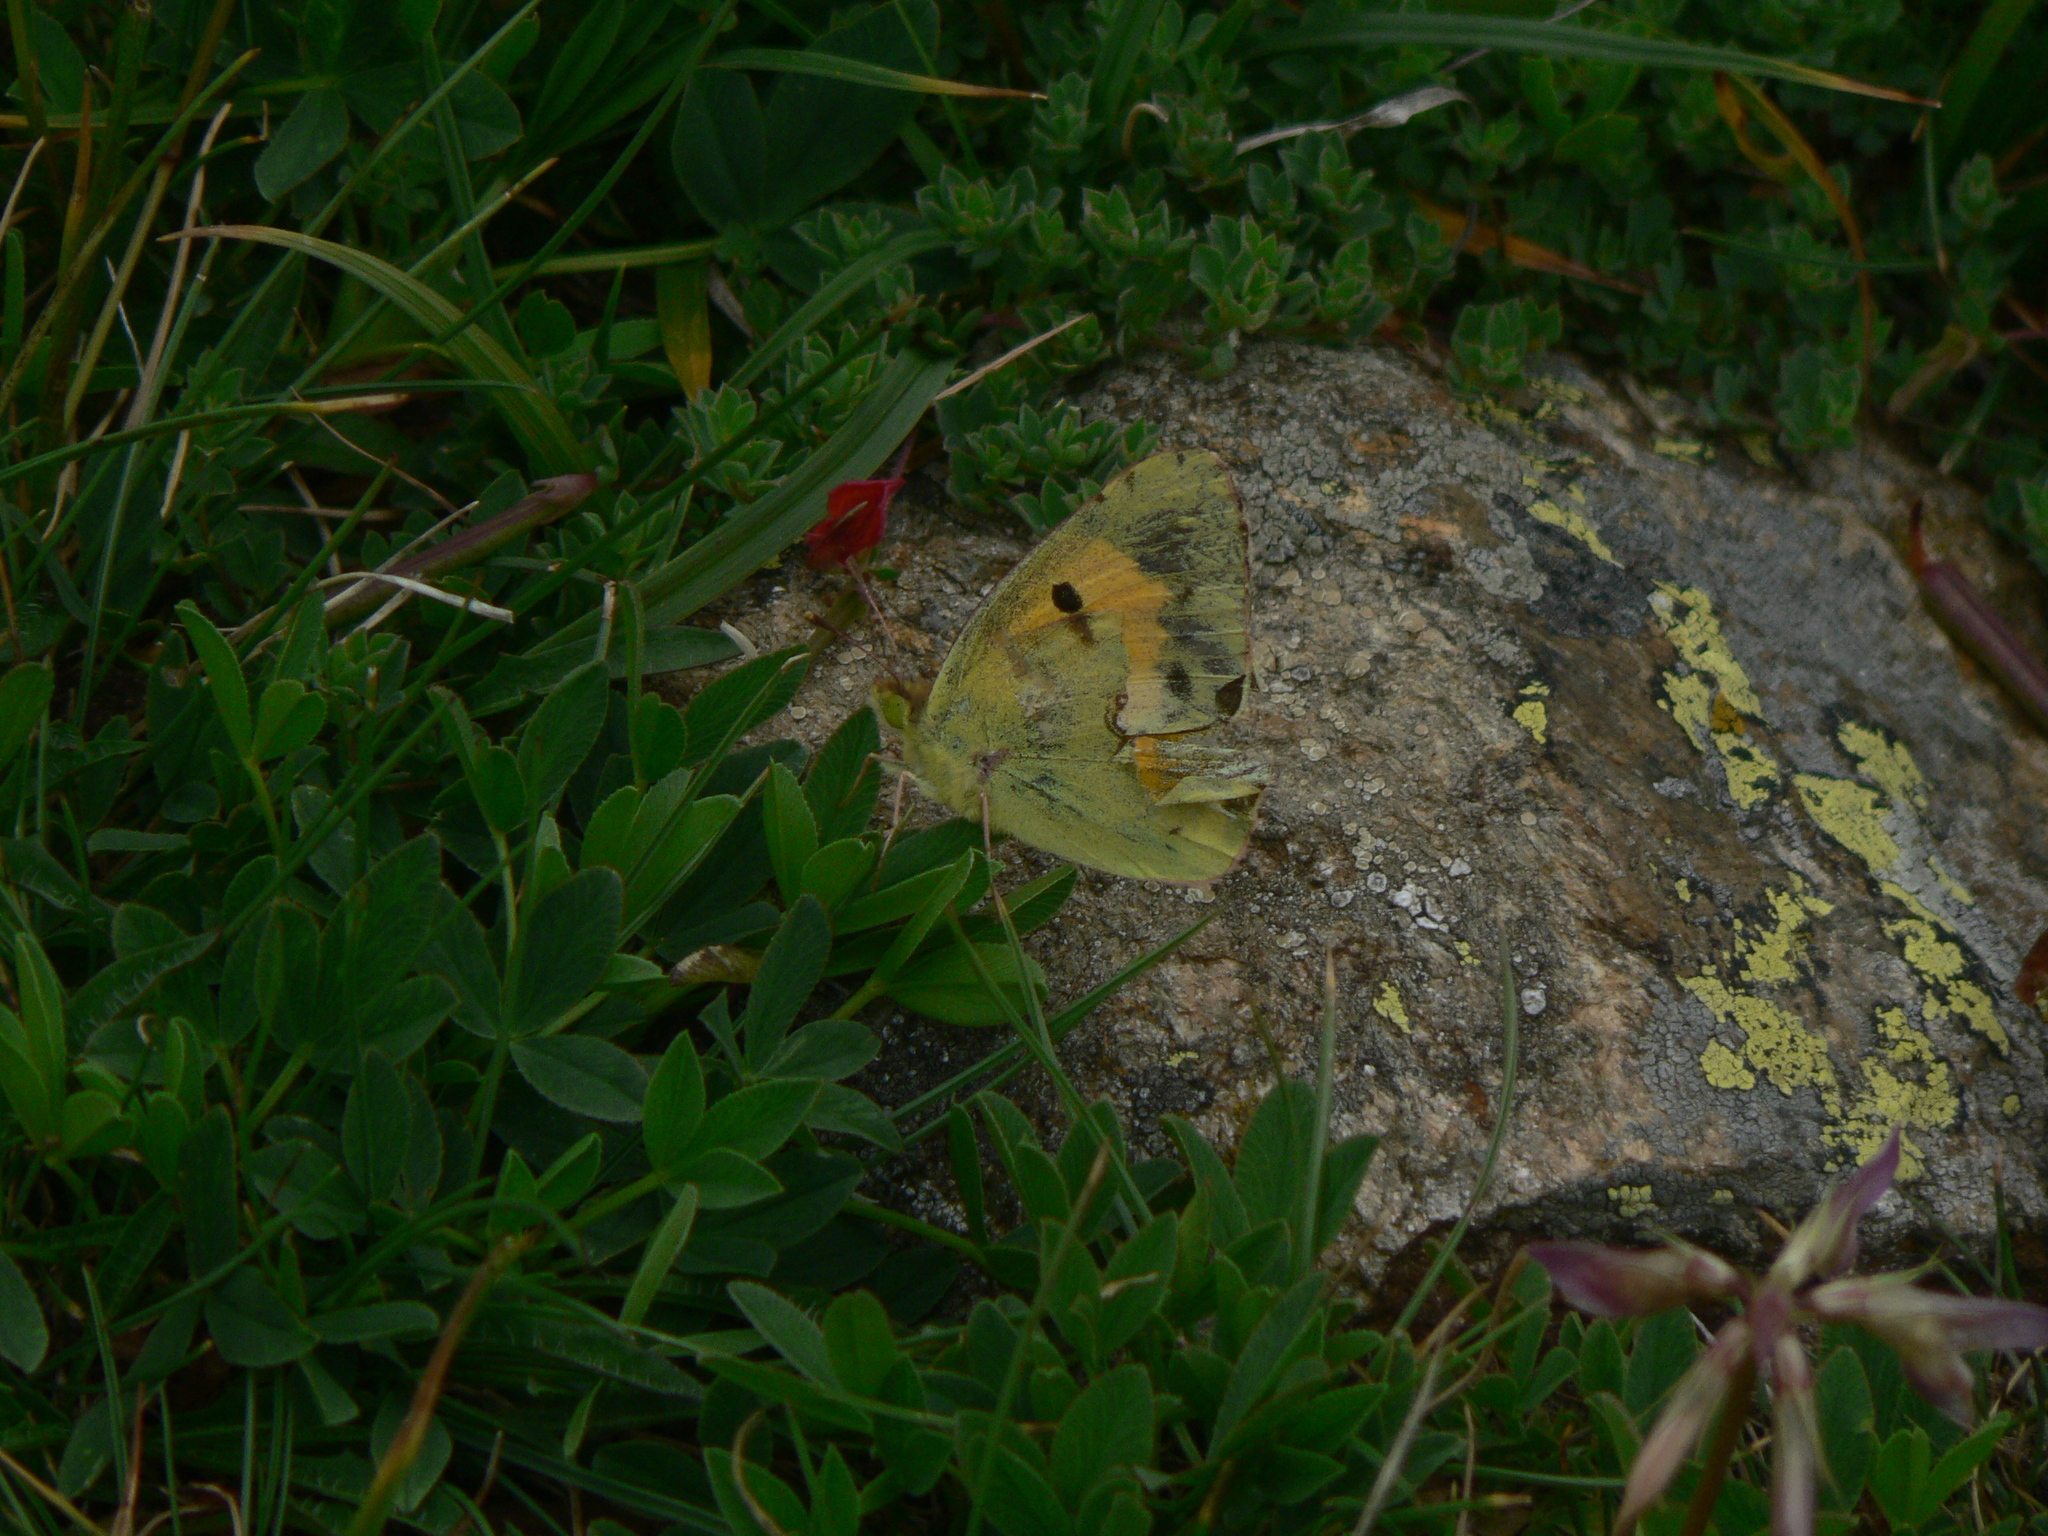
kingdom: Animalia
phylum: Arthropoda
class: Insecta
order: Lepidoptera
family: Pieridae
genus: Colias
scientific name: Colias croceus
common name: Clouded yellow
